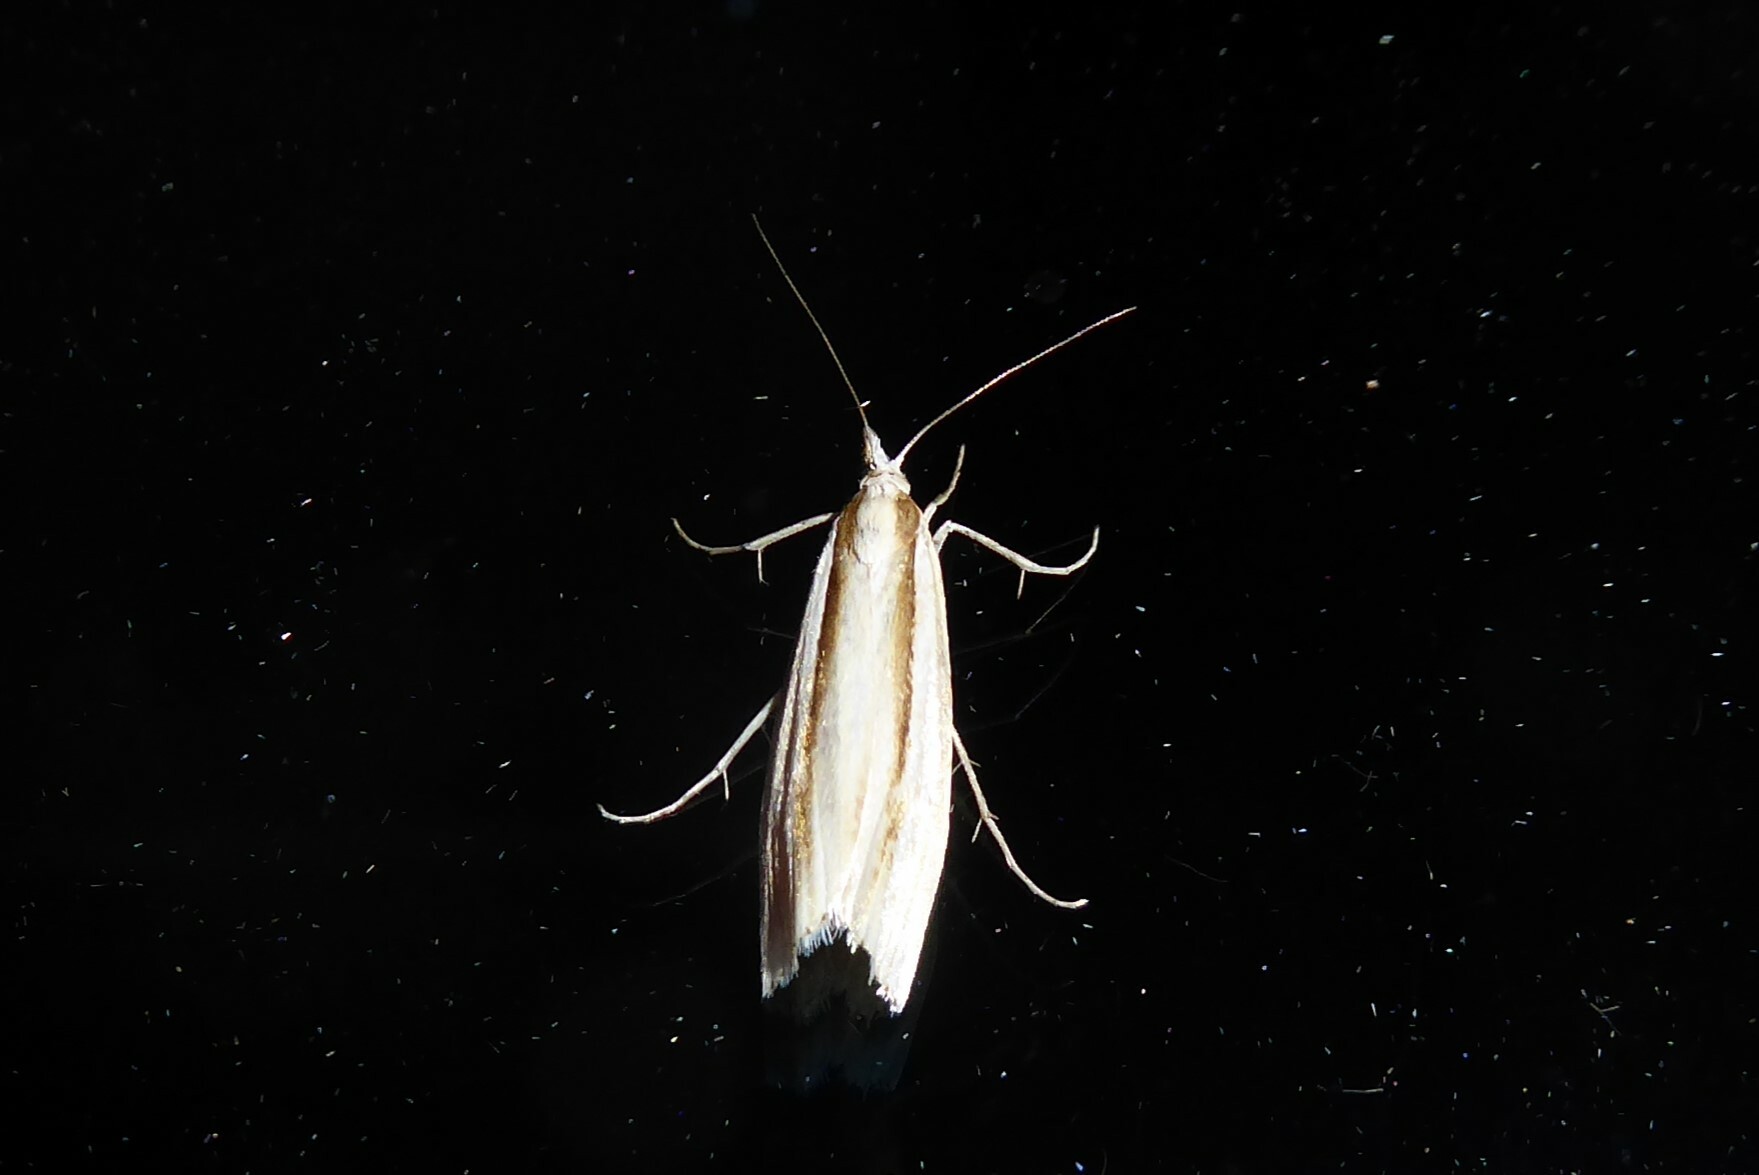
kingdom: Animalia
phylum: Arthropoda
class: Insecta
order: Lepidoptera
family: Crambidae
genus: Orocrambus
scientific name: Orocrambus ramosellus
